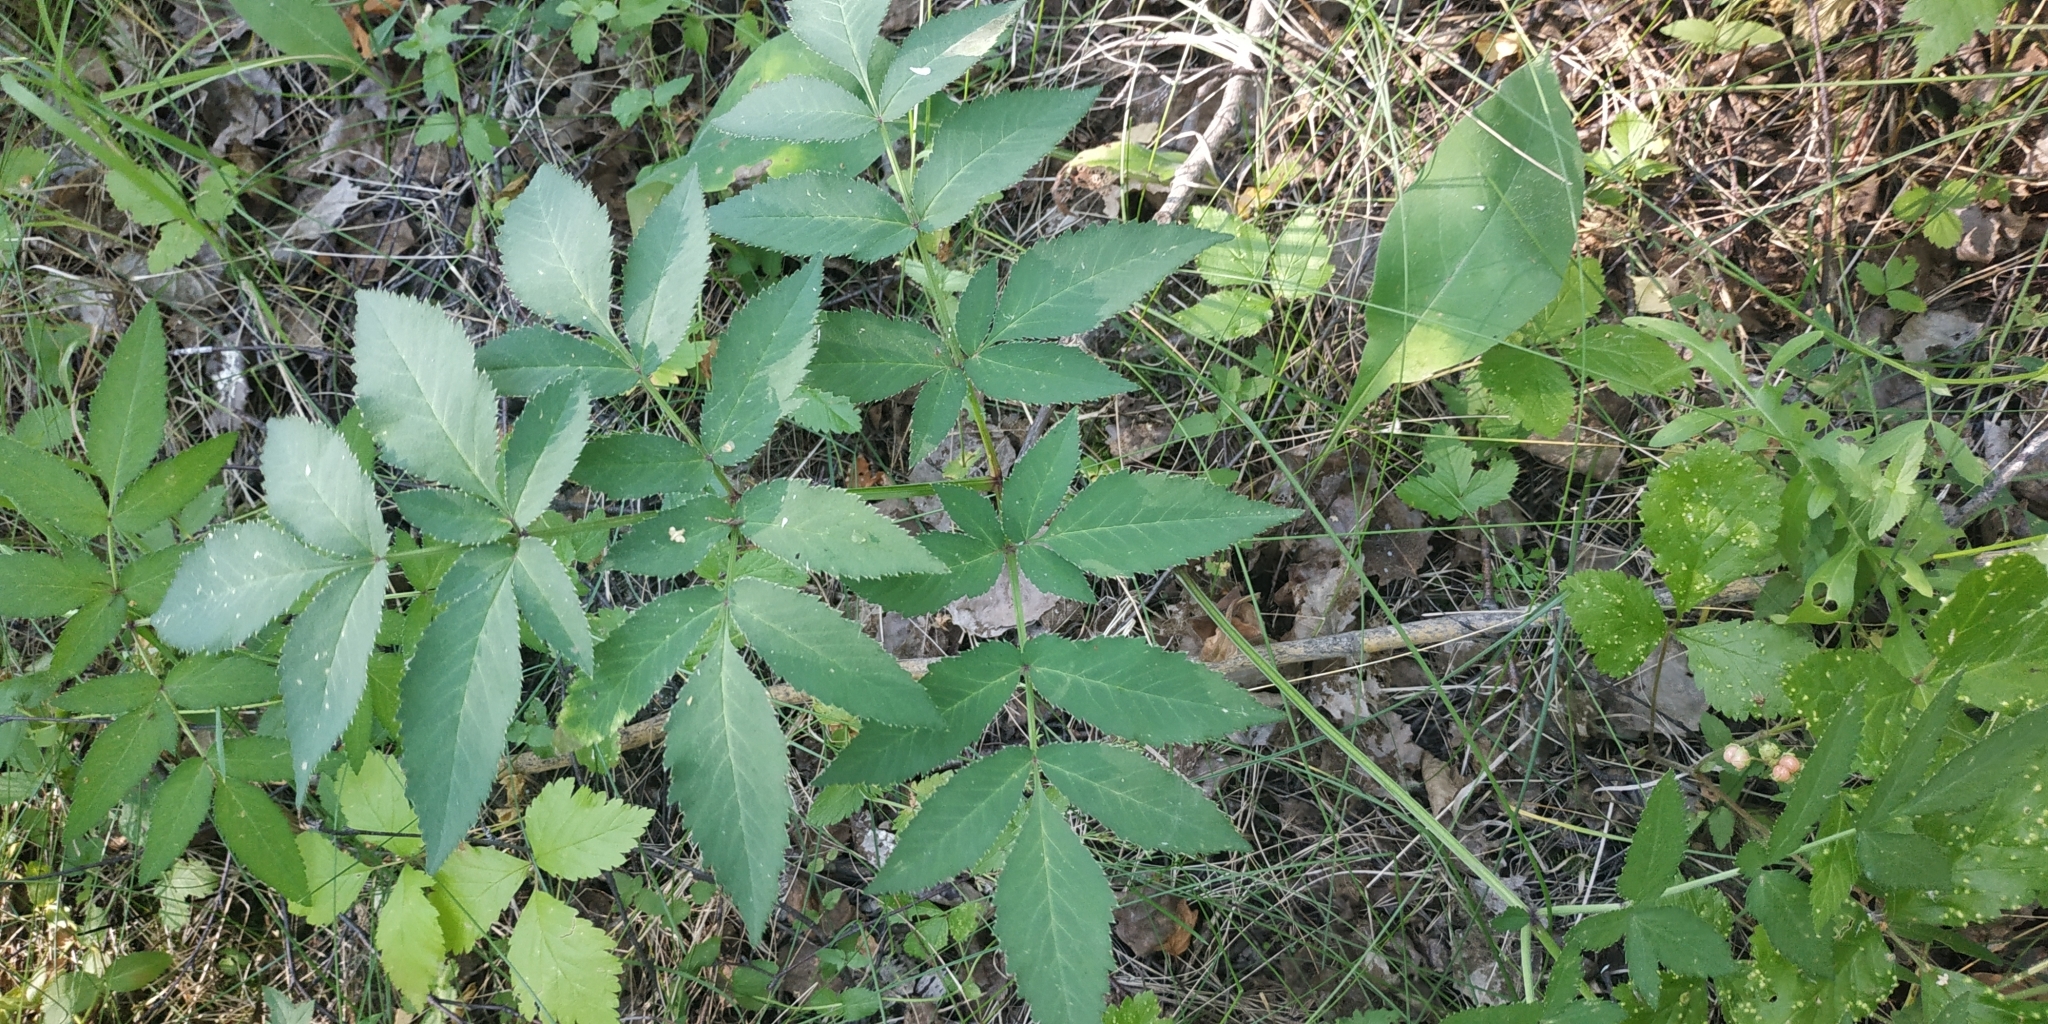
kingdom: Plantae
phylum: Tracheophyta
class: Magnoliopsida
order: Apiales
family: Apiaceae
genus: Angelica
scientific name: Angelica sylvestris
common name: Wild angelica
